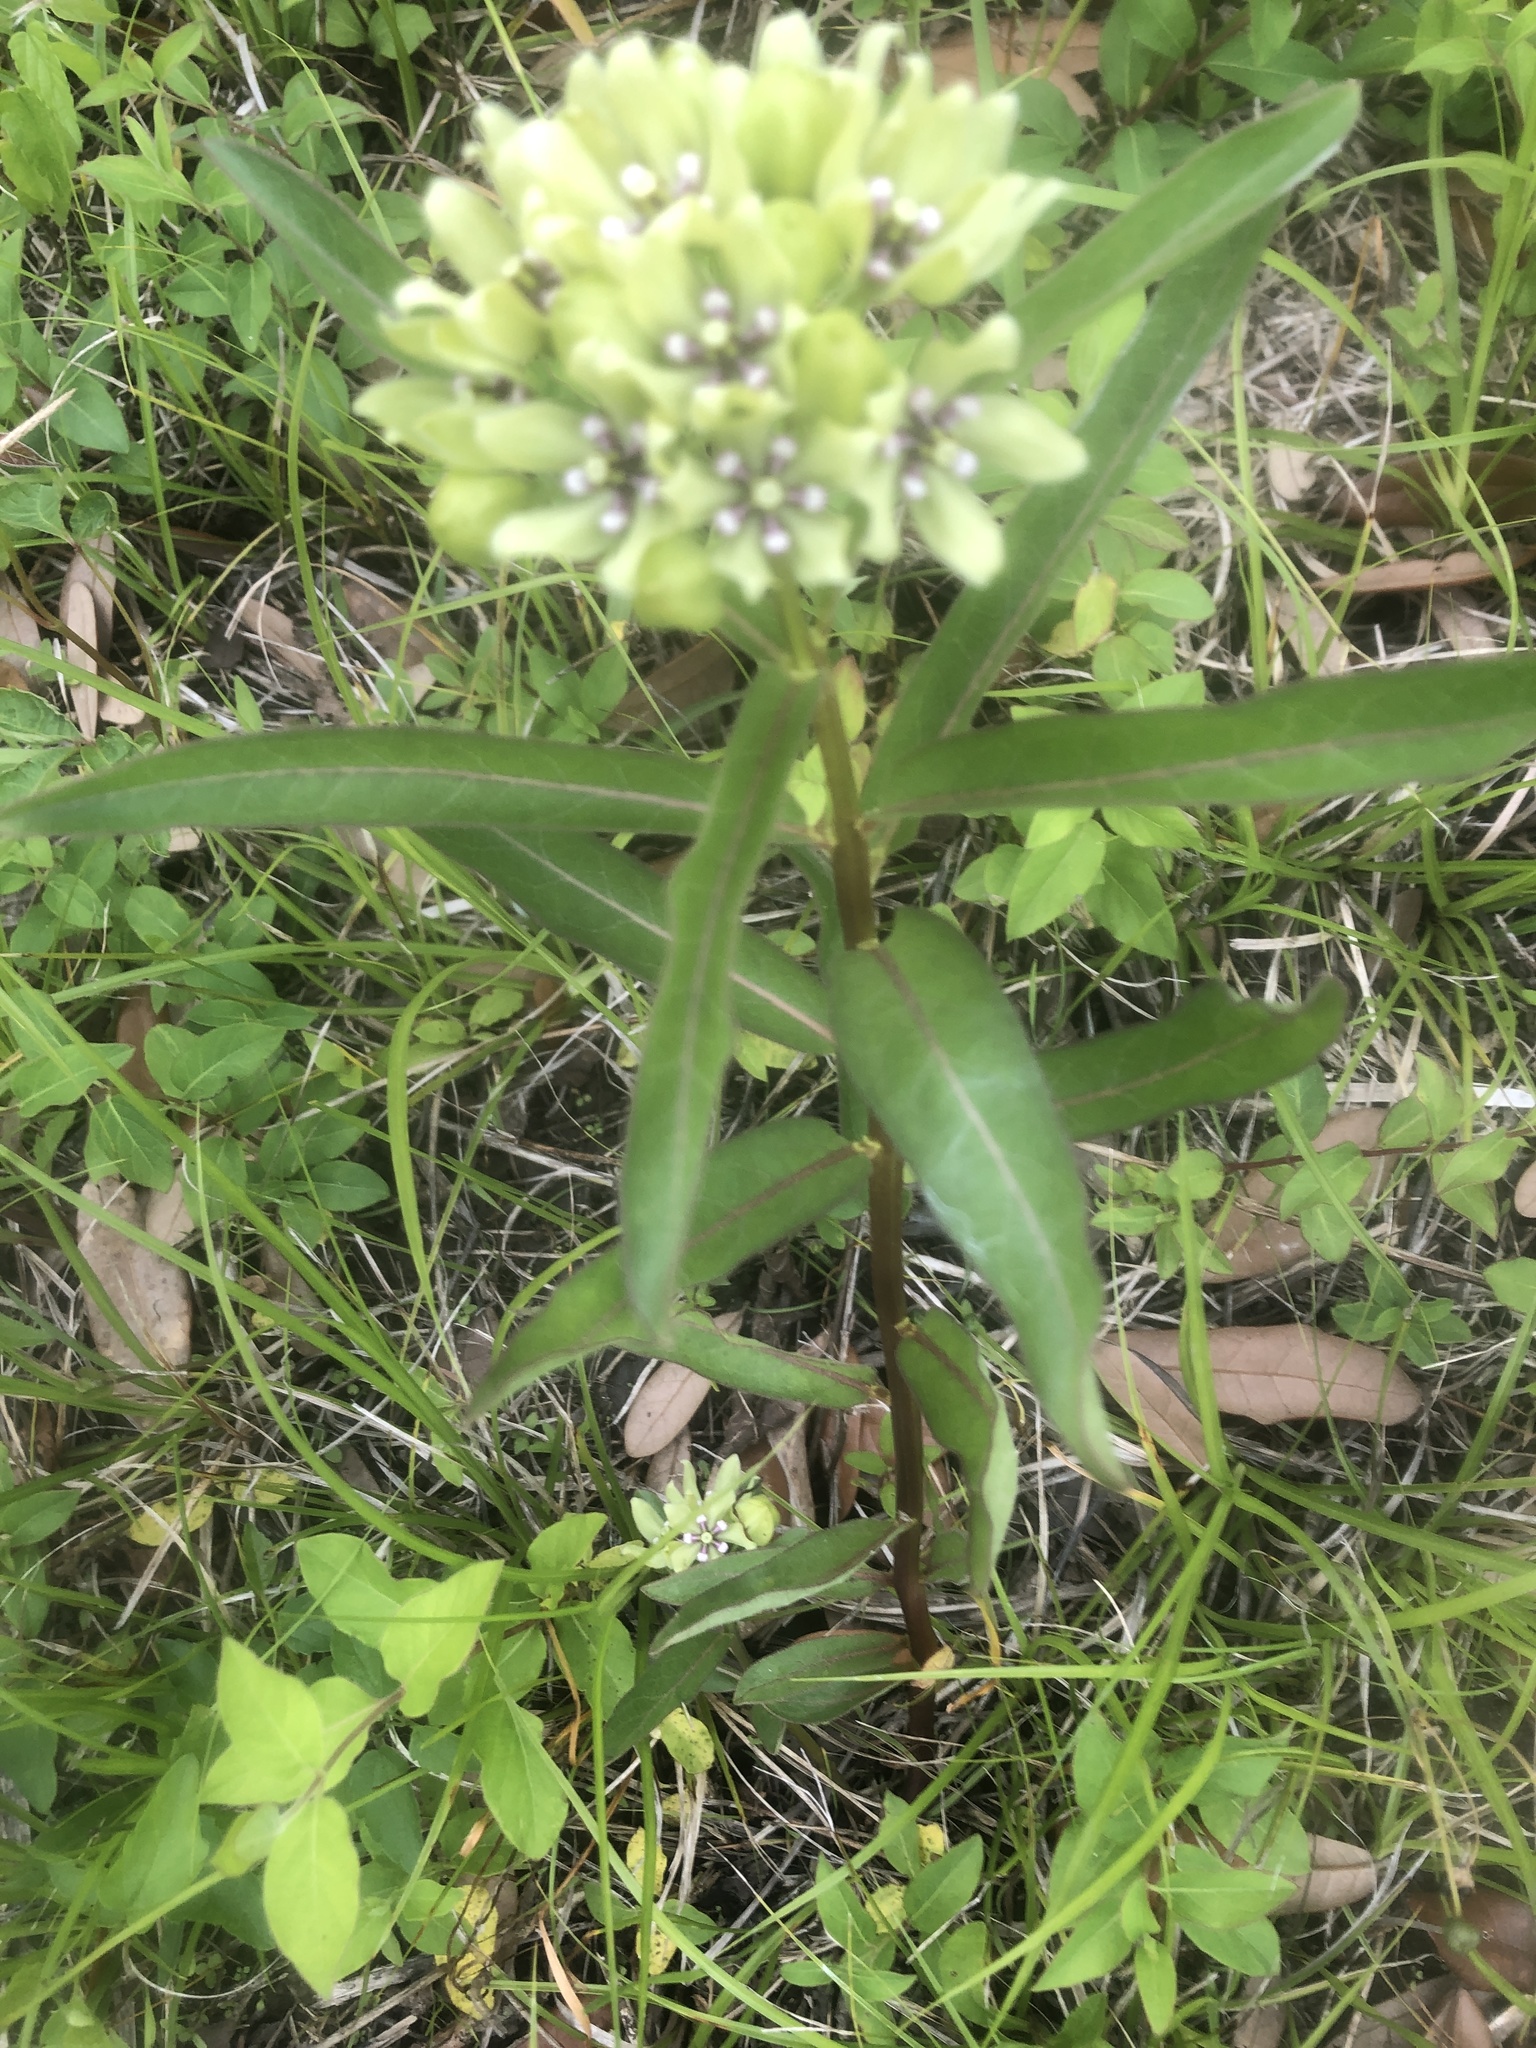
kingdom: Plantae
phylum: Tracheophyta
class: Magnoliopsida
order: Gentianales
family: Apocynaceae
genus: Asclepias
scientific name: Asclepias viridis
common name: Antelope-horns
